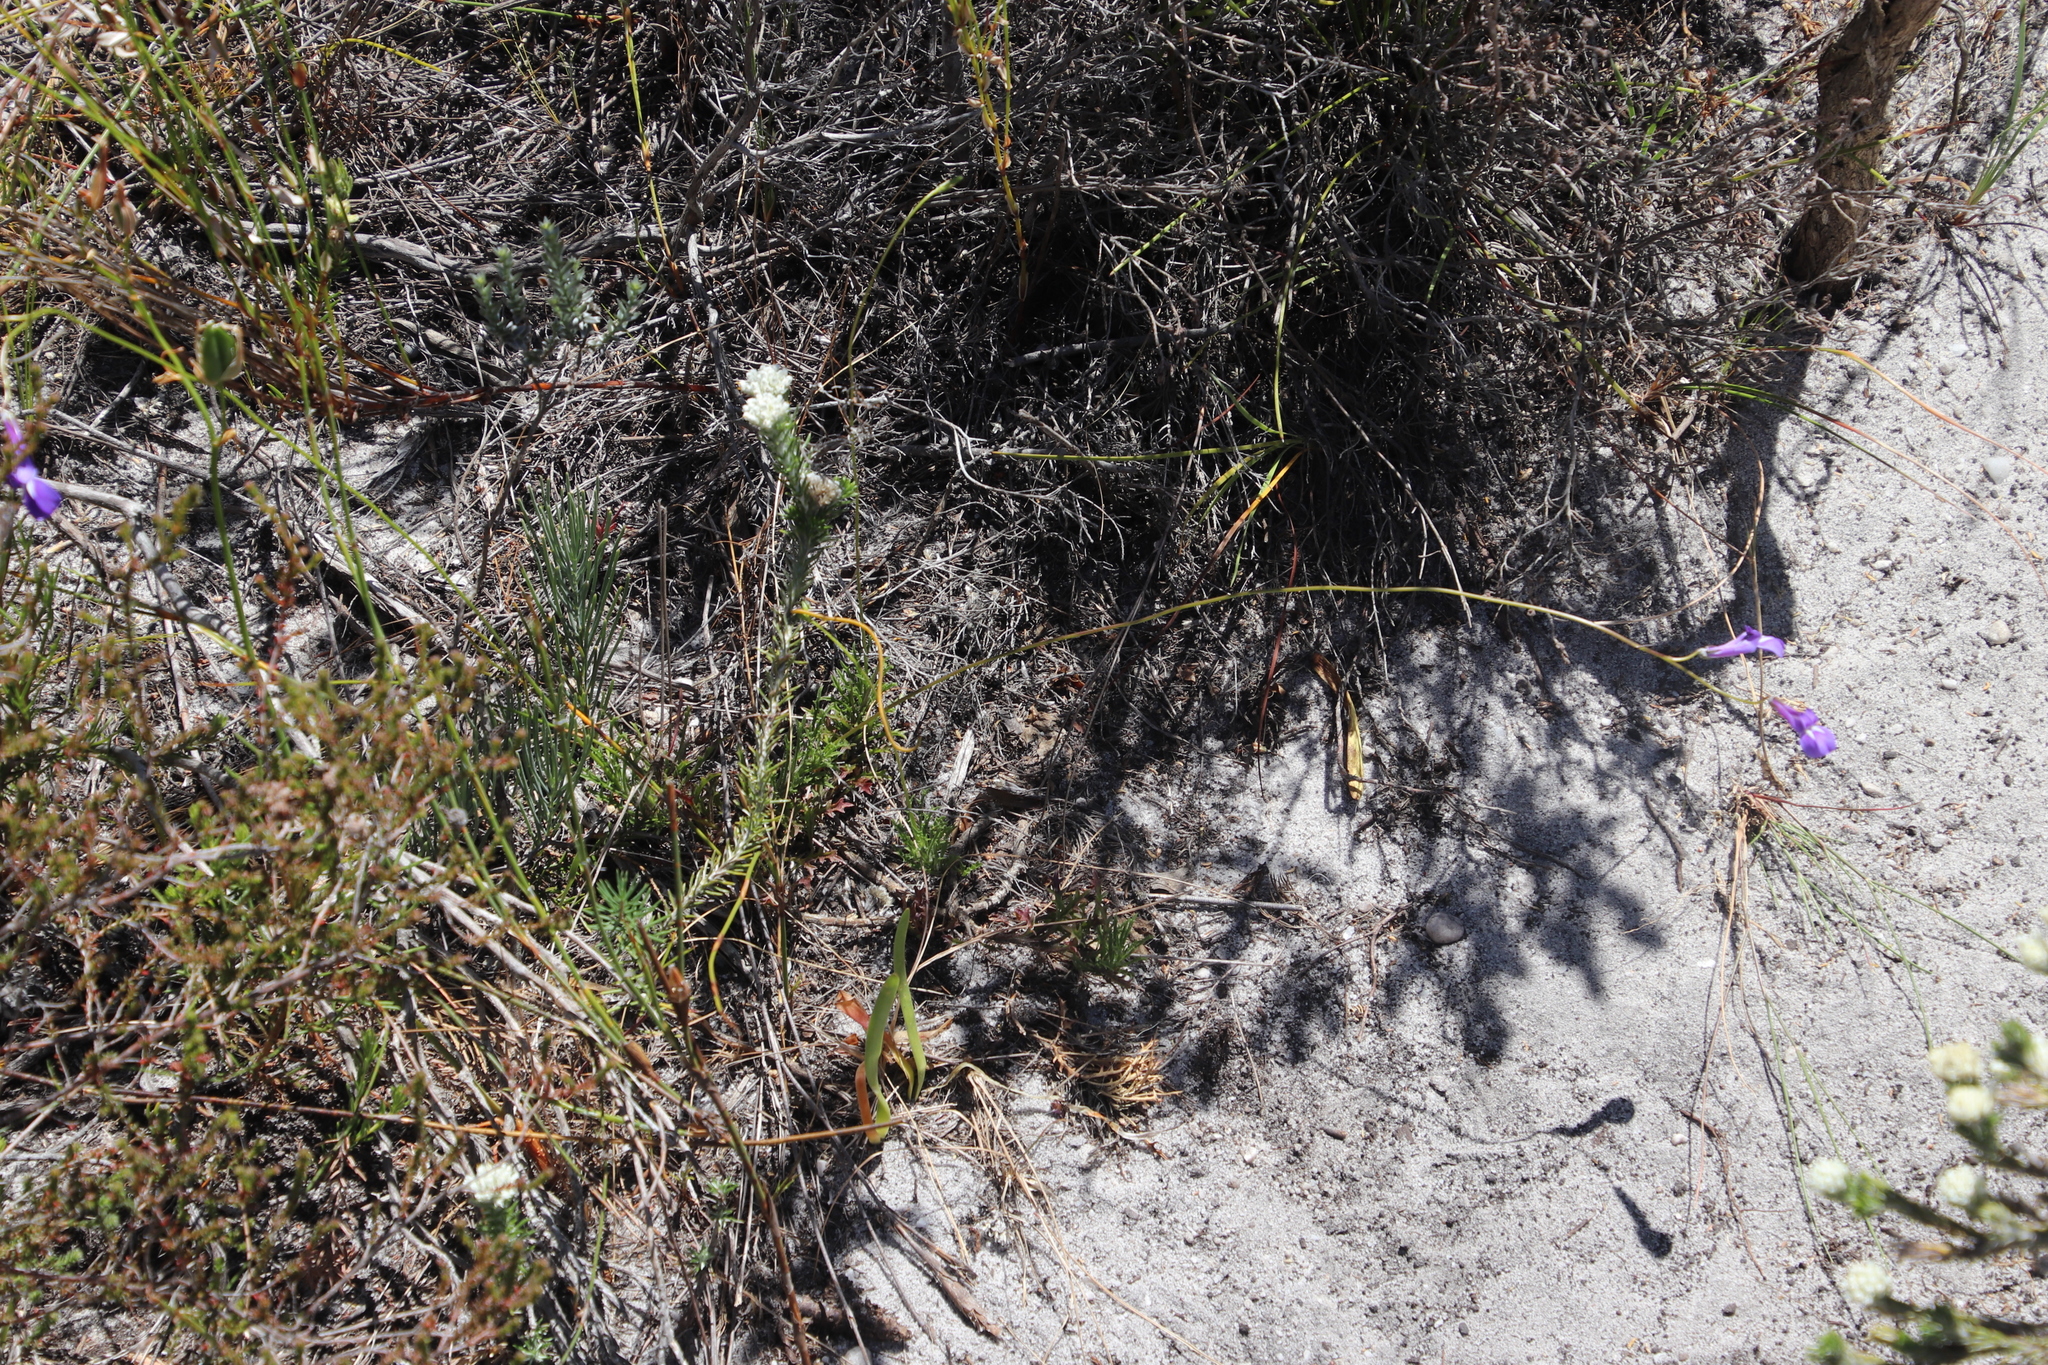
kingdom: Plantae
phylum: Tracheophyta
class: Magnoliopsida
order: Asterales
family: Campanulaceae
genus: Lobelia
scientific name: Lobelia coronopifolia
